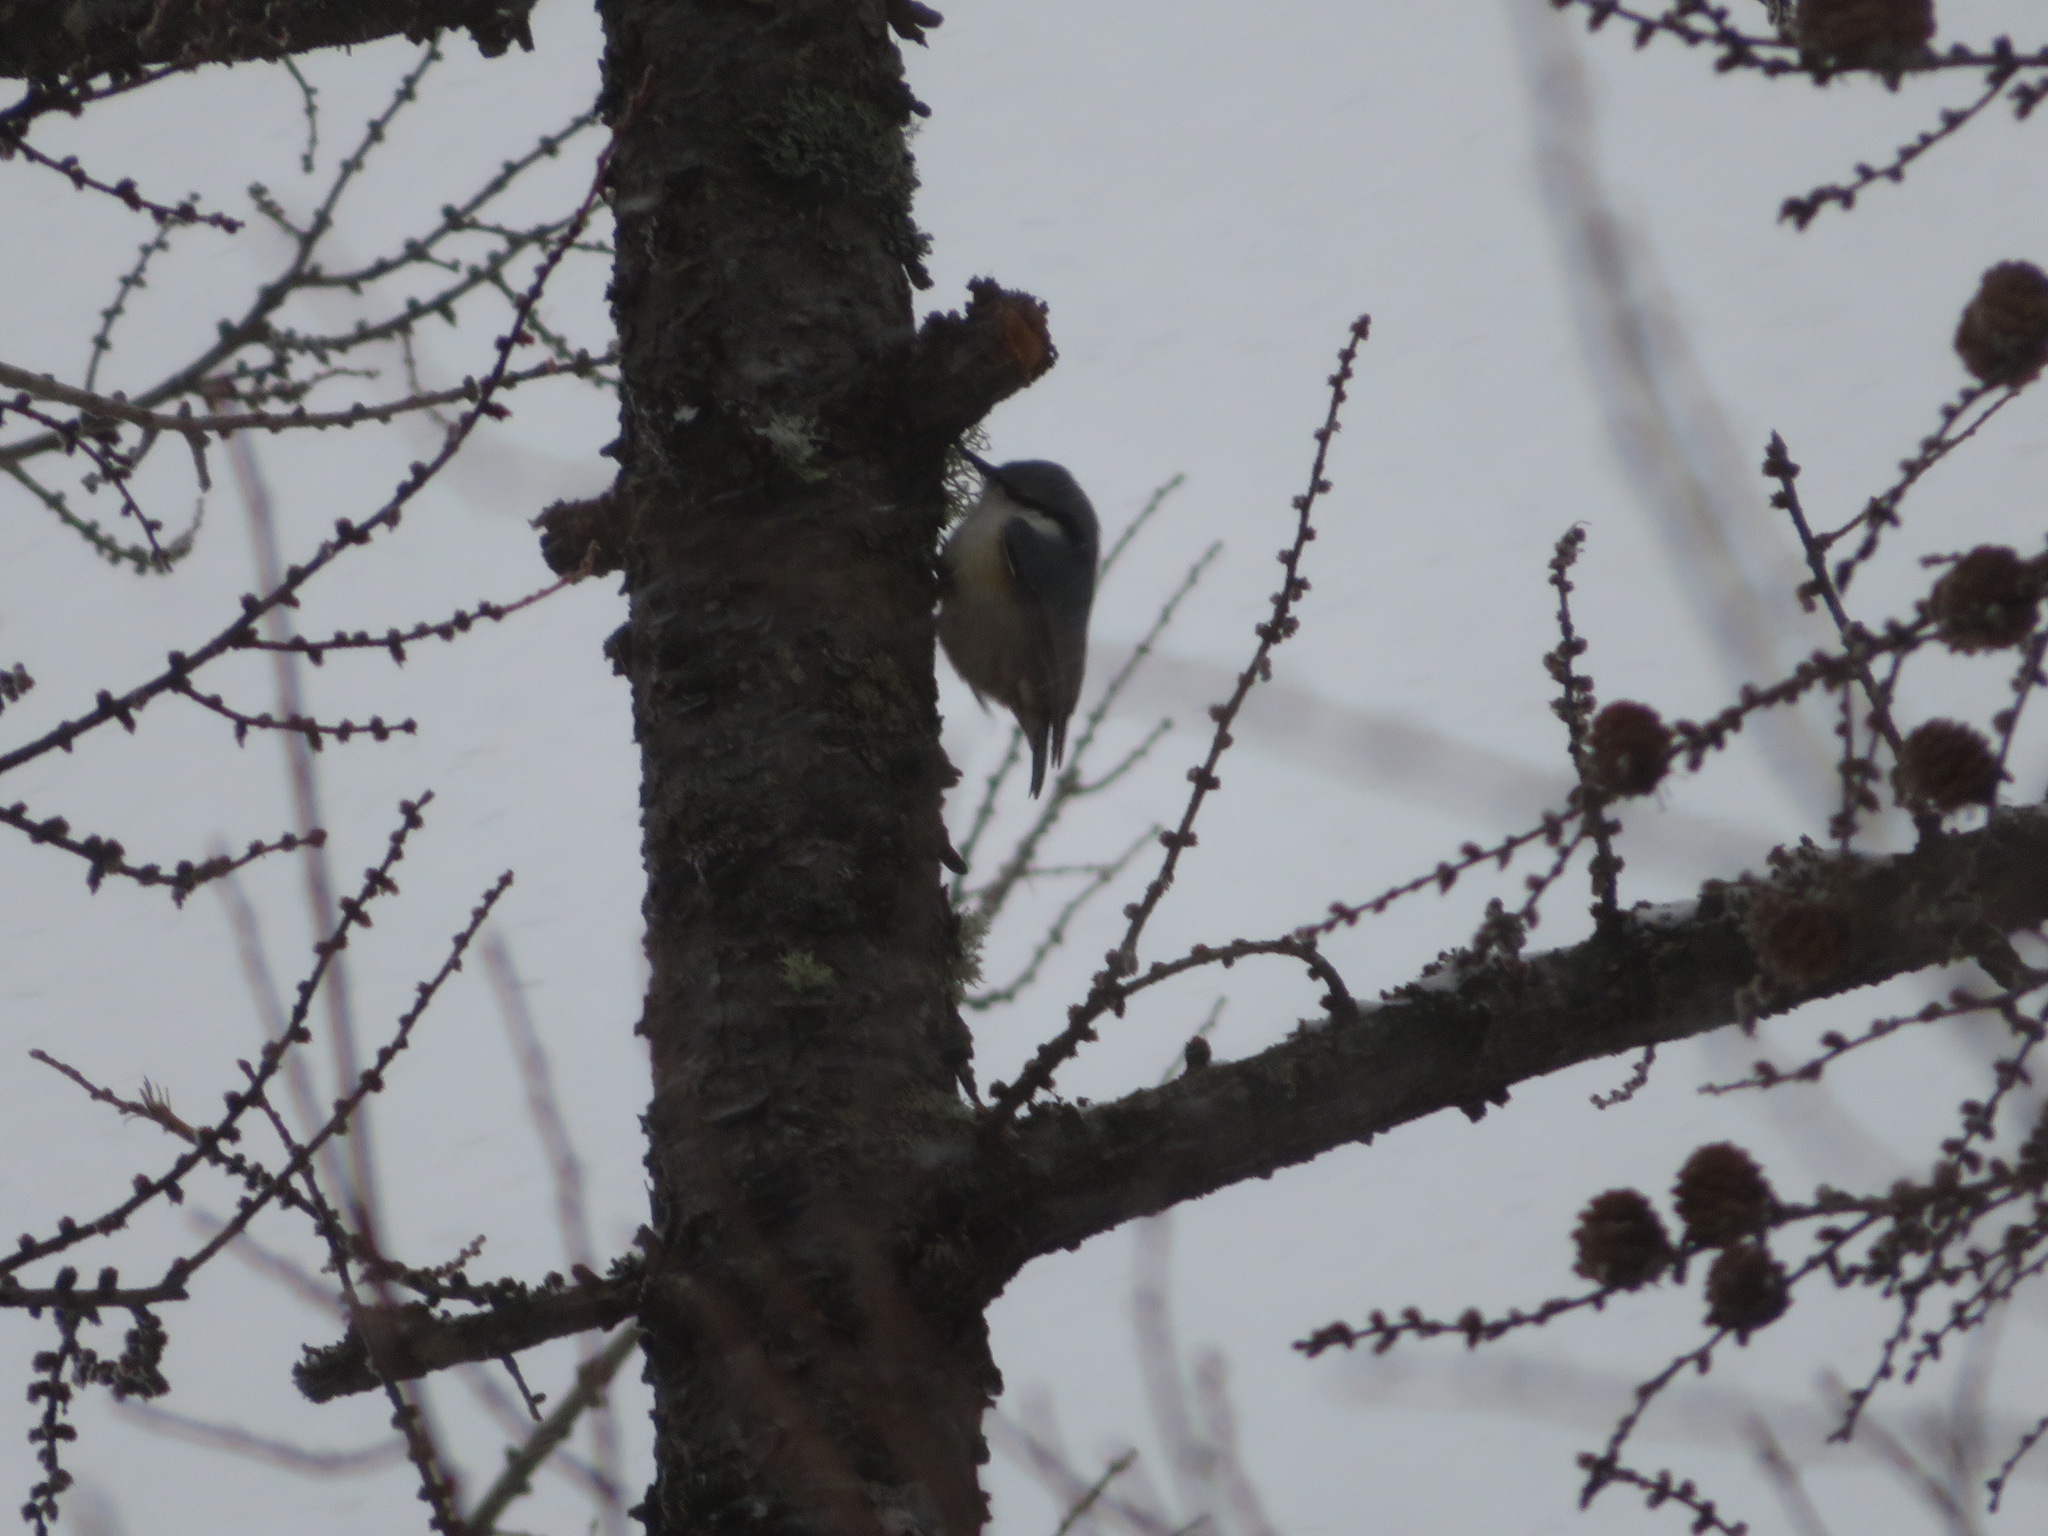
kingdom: Animalia
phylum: Chordata
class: Aves
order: Passeriformes
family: Sittidae
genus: Sitta
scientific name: Sitta europaea
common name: Eurasian nuthatch
